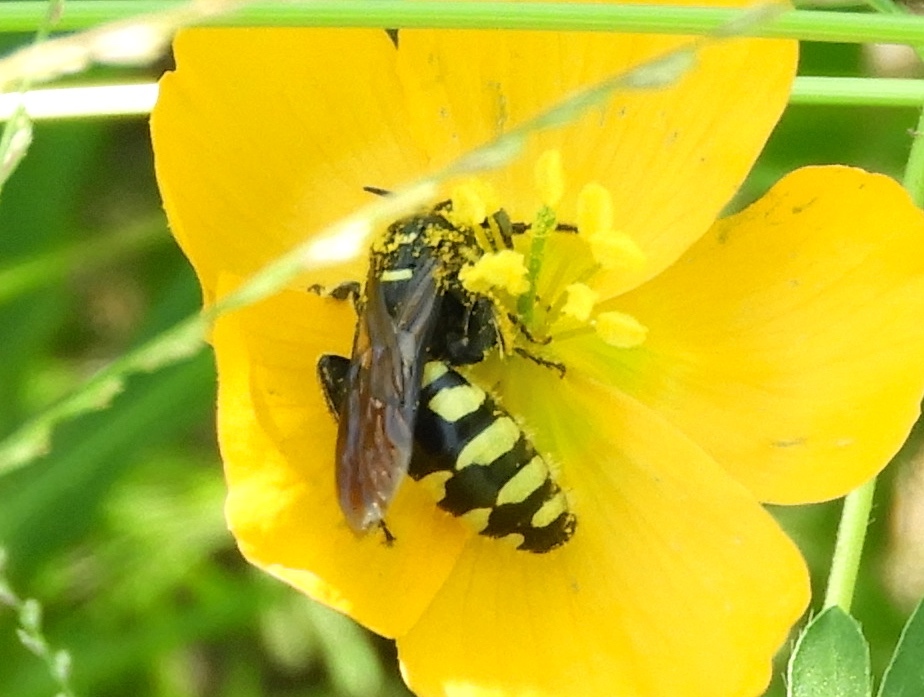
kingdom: Animalia
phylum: Arthropoda
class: Insecta
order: Hymenoptera
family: Tiphiidae
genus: Myzinum
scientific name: Myzinum
